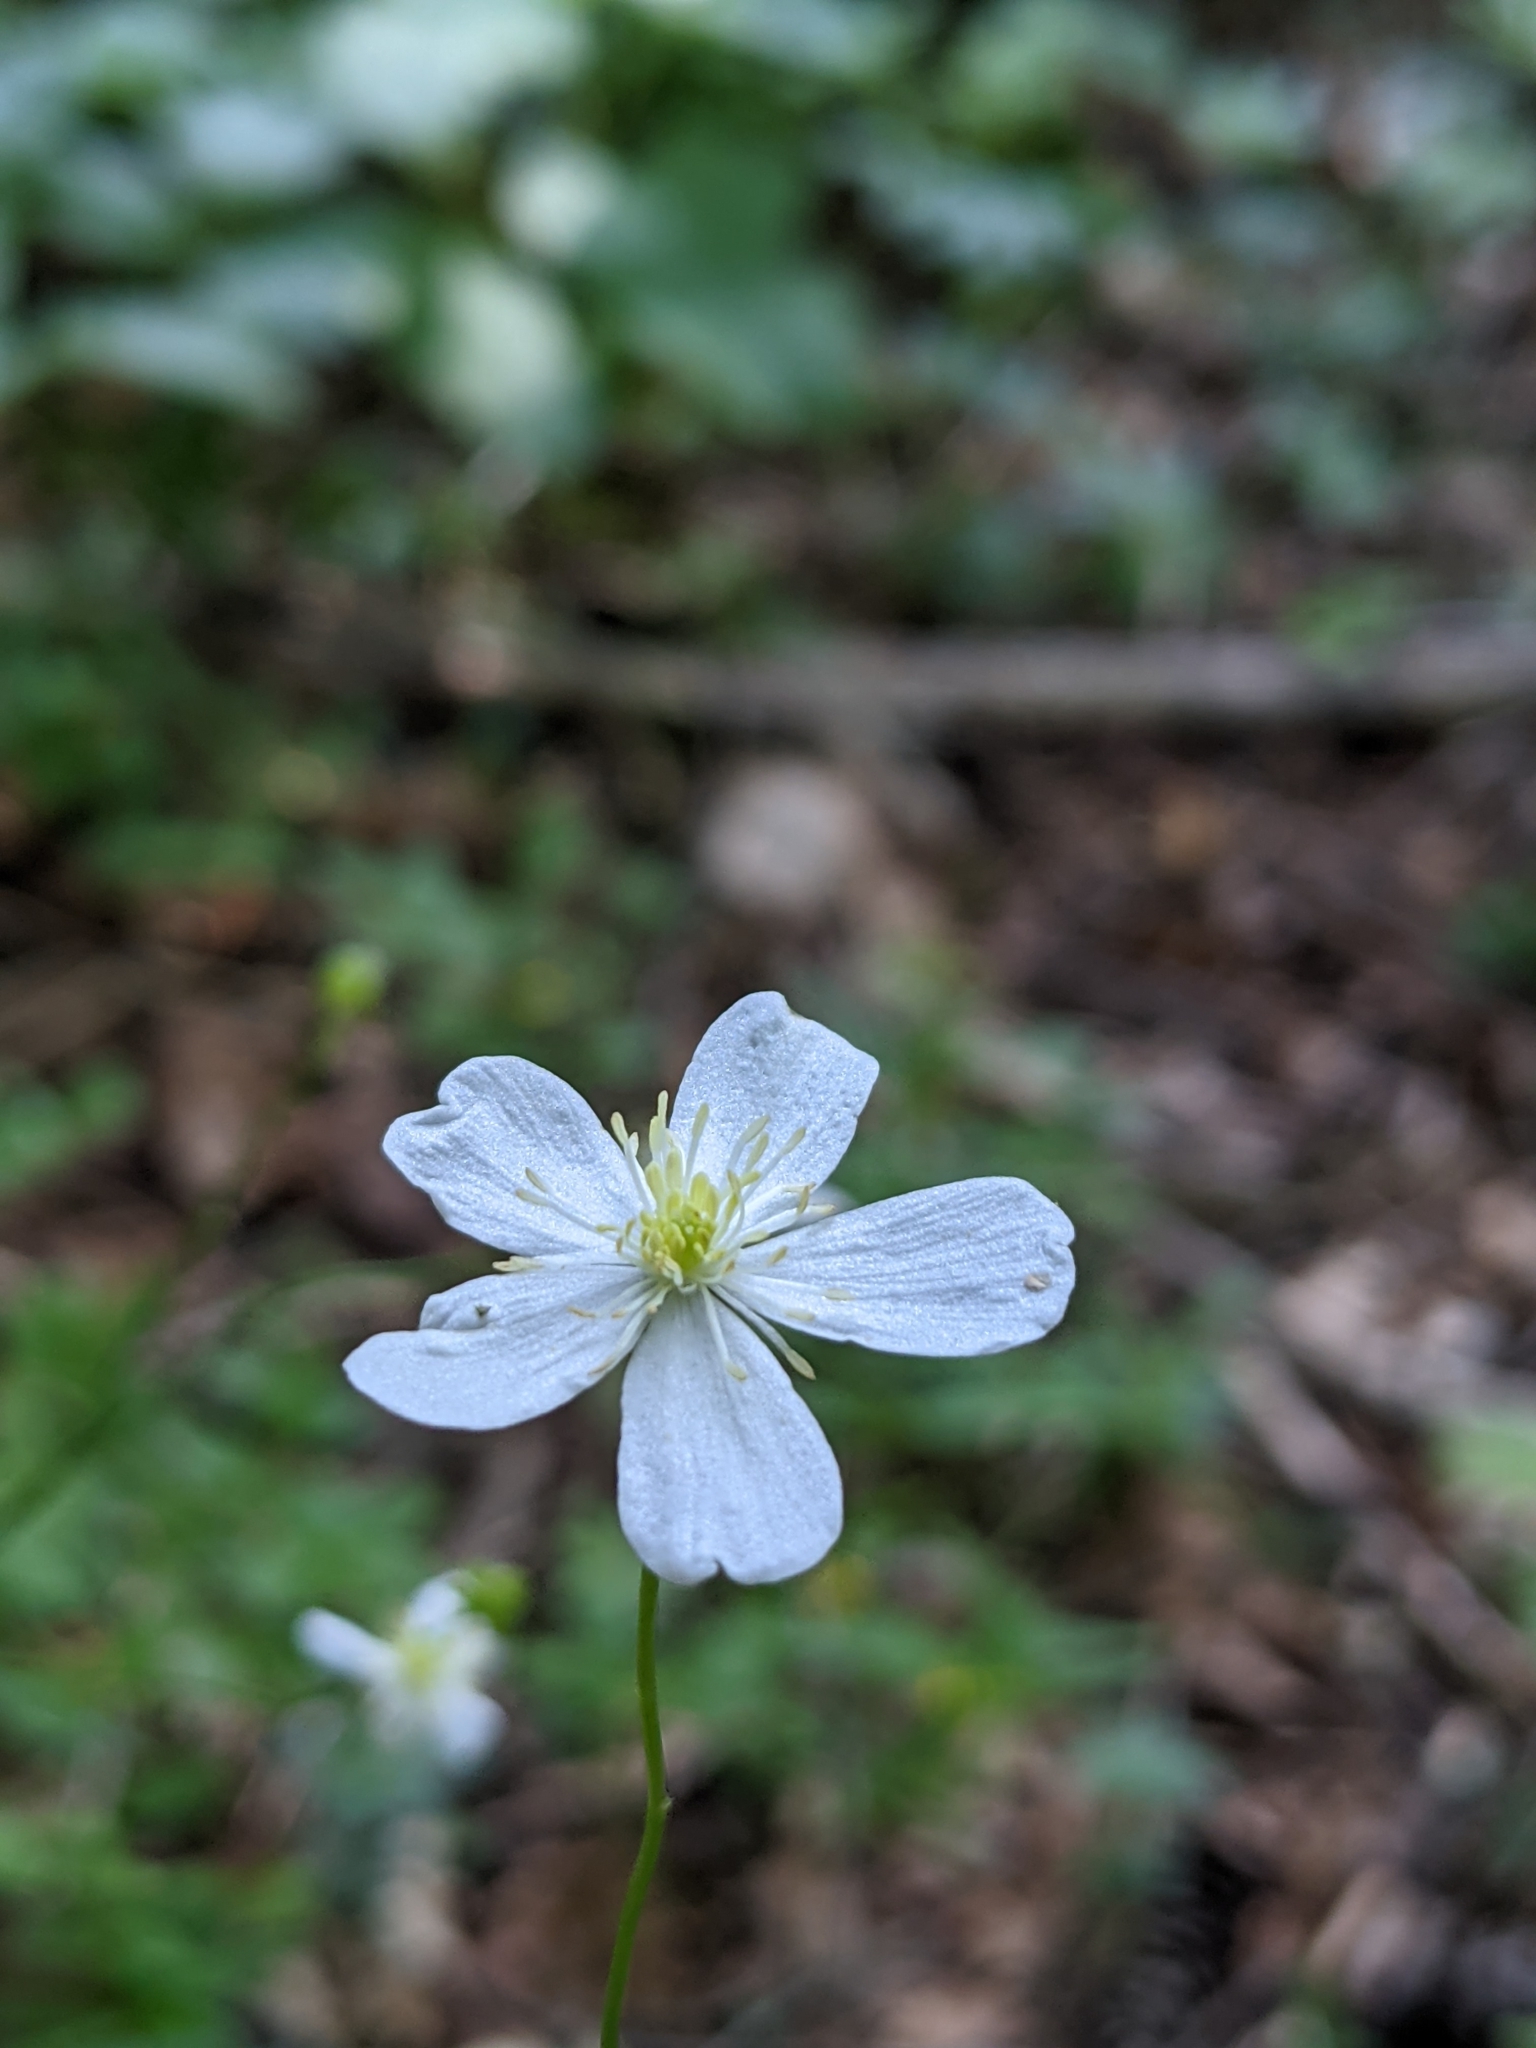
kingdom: Plantae
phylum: Tracheophyta
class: Magnoliopsida
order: Ranunculales
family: Ranunculaceae
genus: Ranunculus
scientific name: Ranunculus platanifolius
